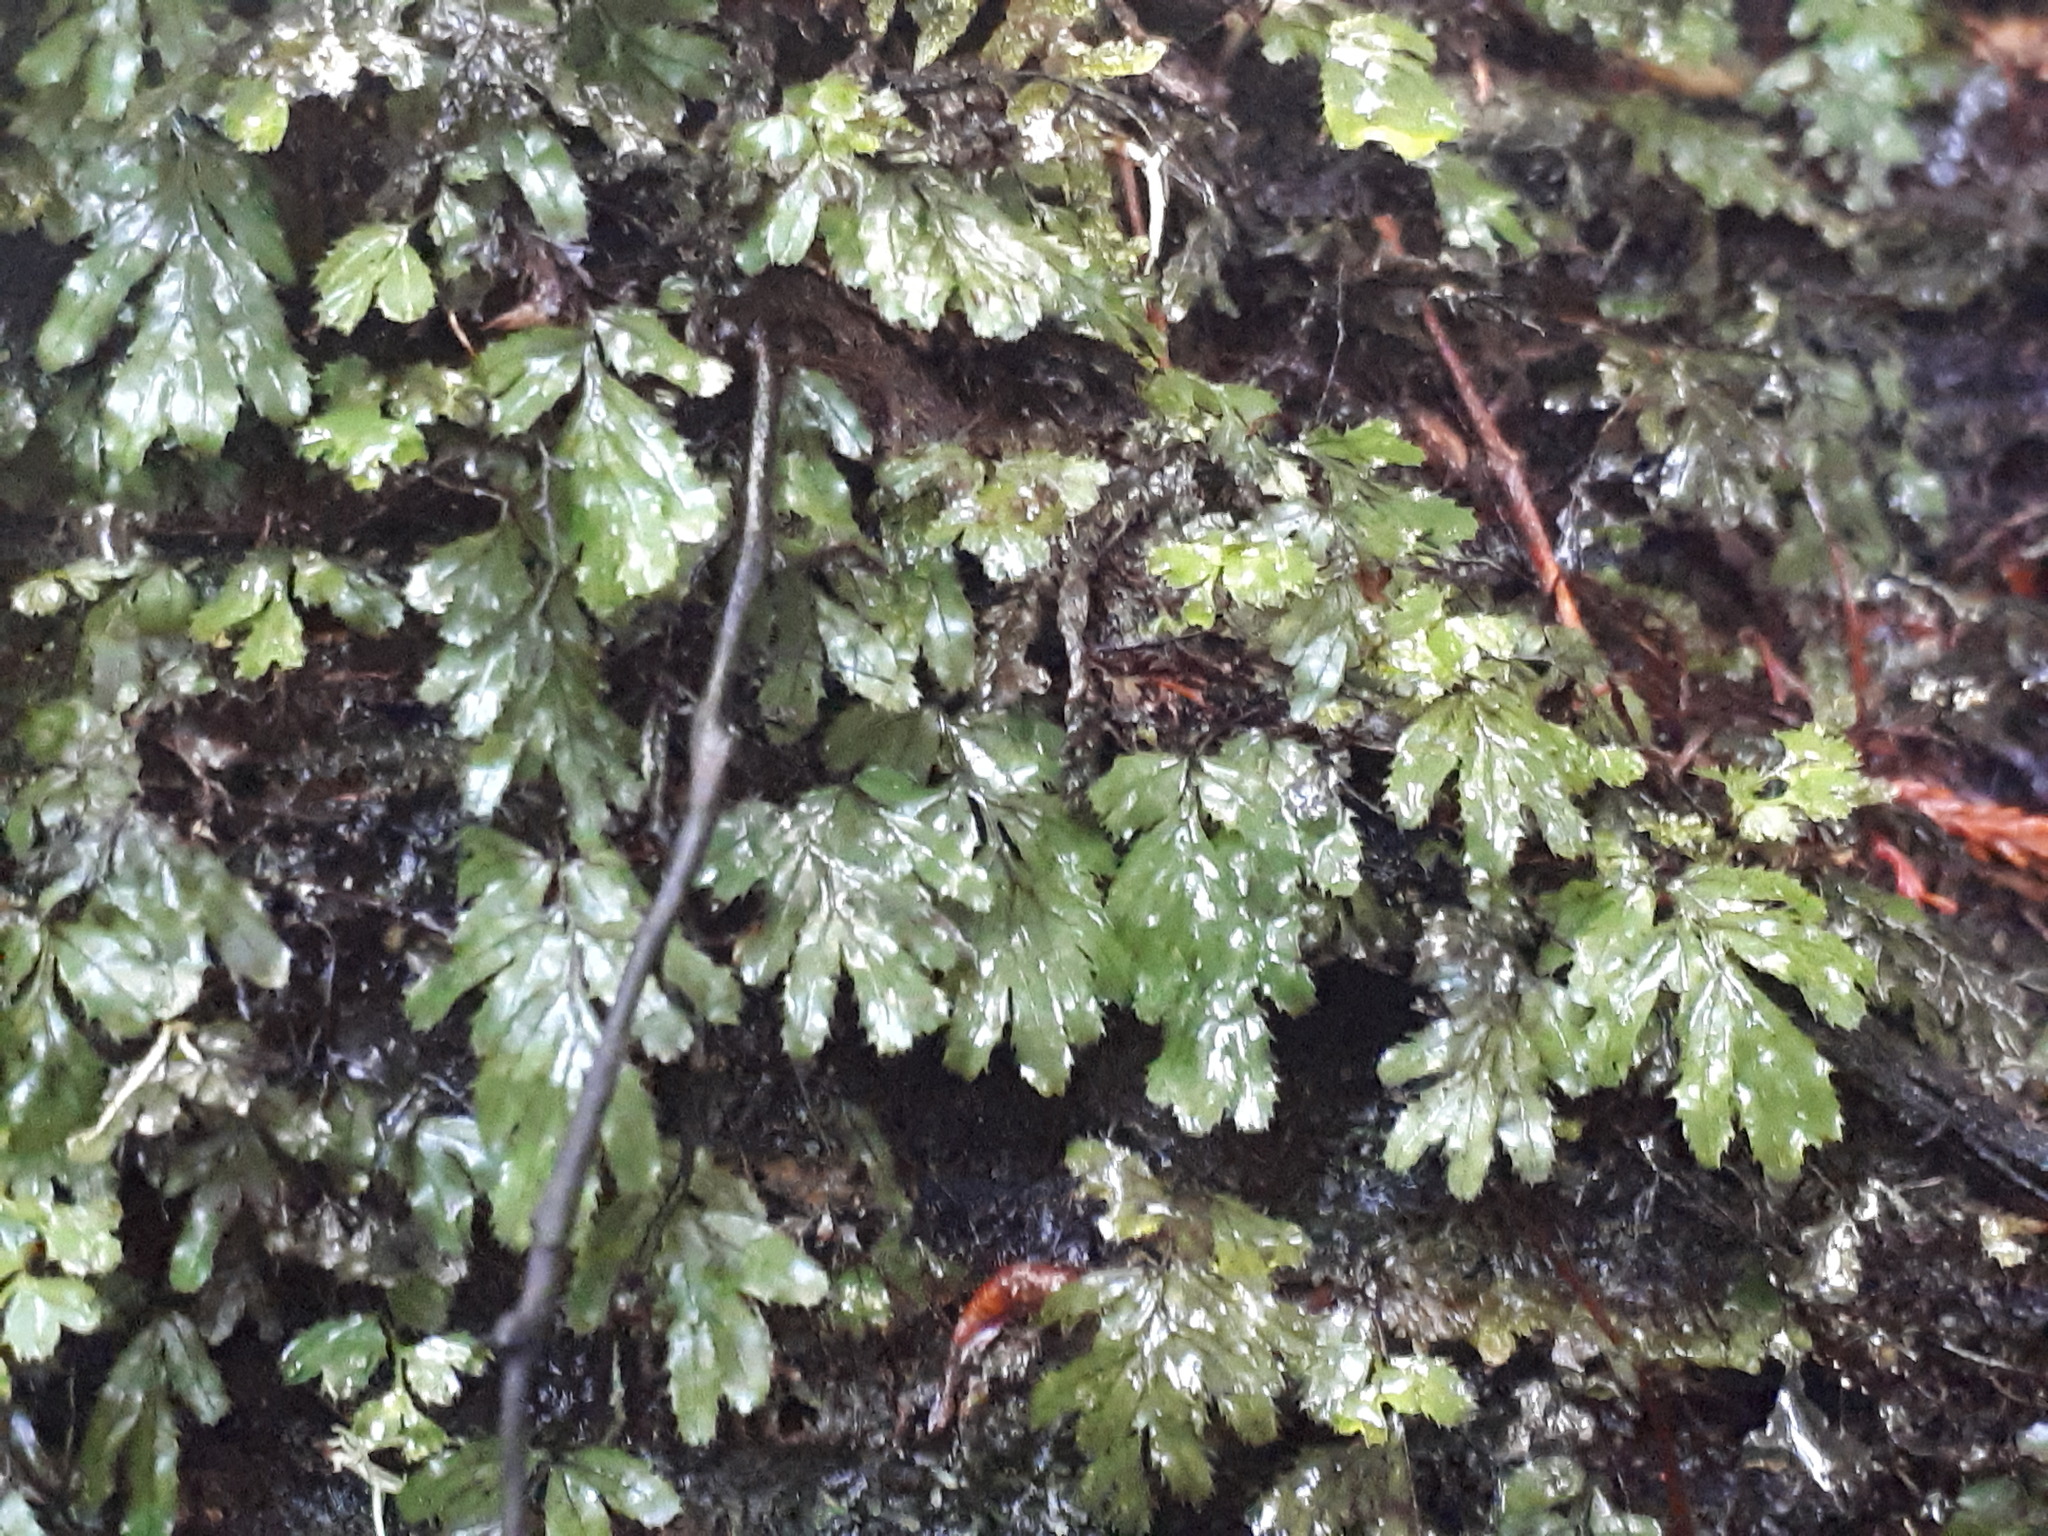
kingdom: Plantae
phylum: Tracheophyta
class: Polypodiopsida
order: Hymenophyllales
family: Hymenophyllaceae
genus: Hymenophyllum
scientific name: Hymenophyllum revolutum
